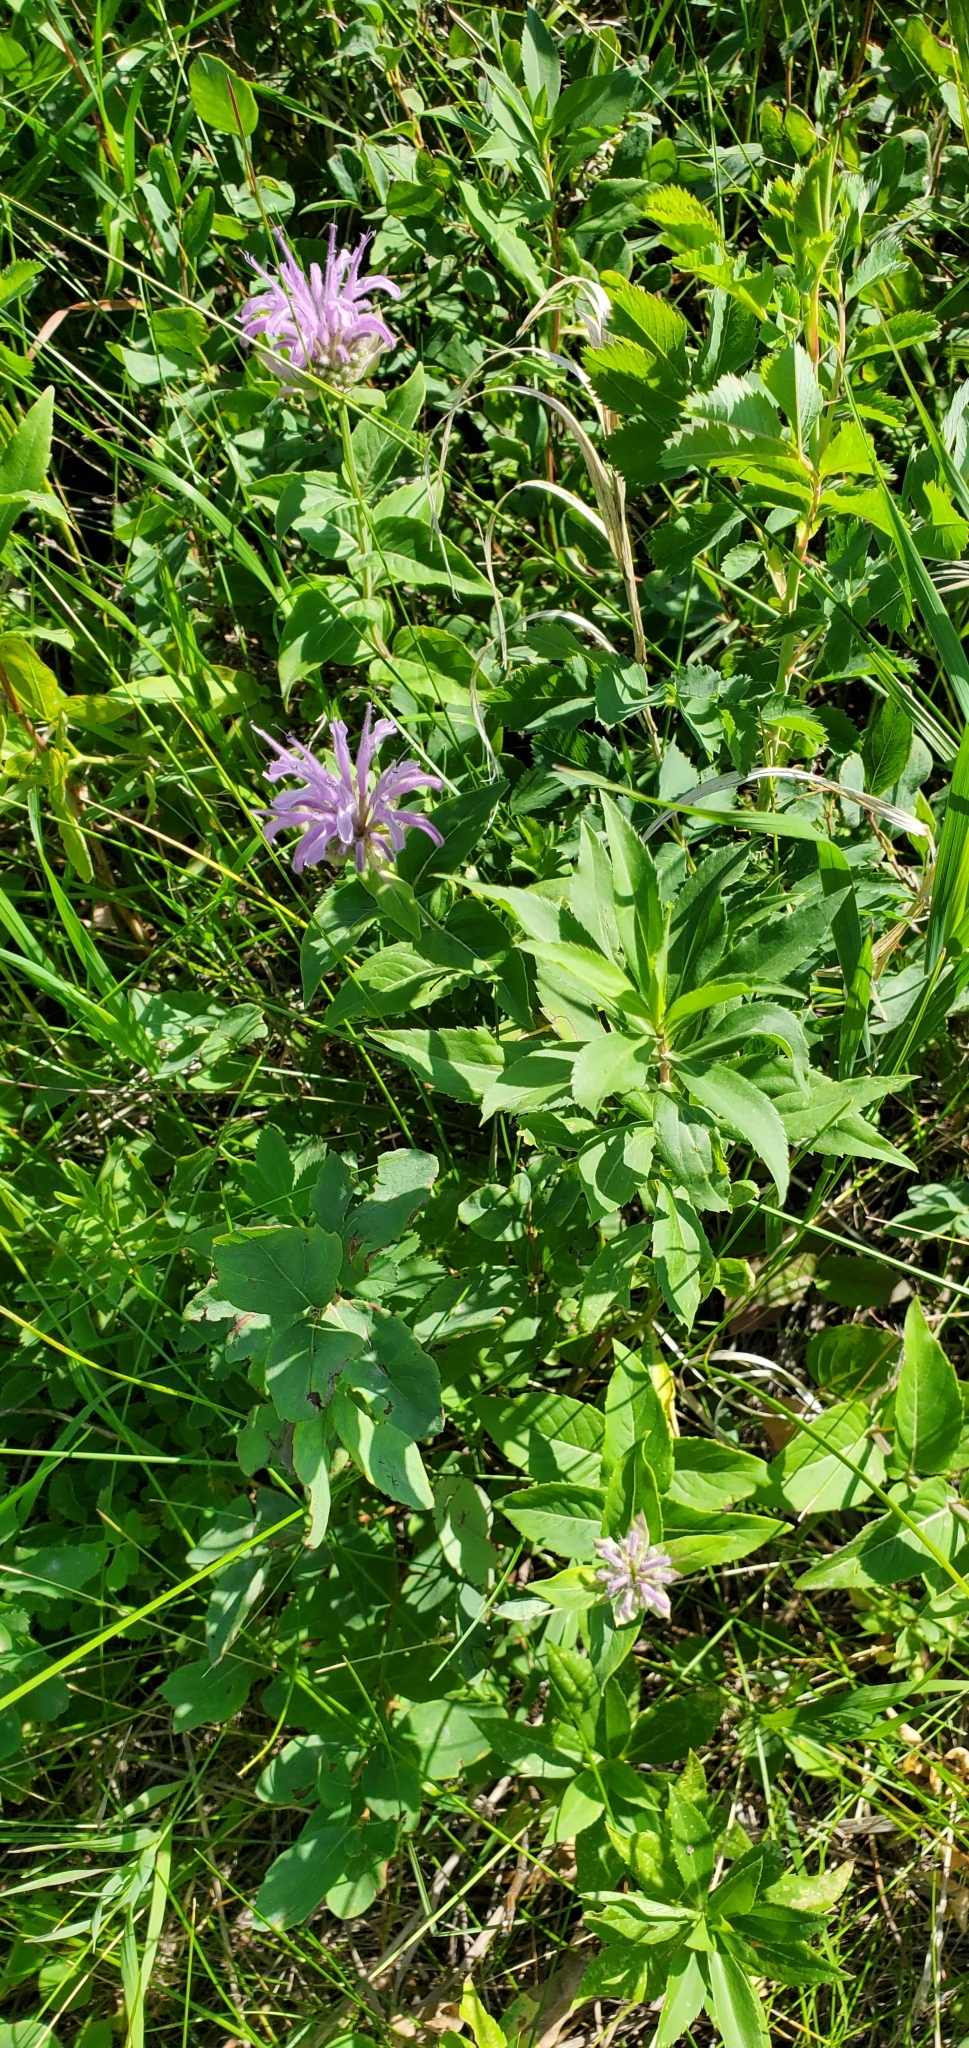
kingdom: Plantae
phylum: Tracheophyta
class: Magnoliopsida
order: Lamiales
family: Lamiaceae
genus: Monarda
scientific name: Monarda fistulosa
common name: Purple beebalm
